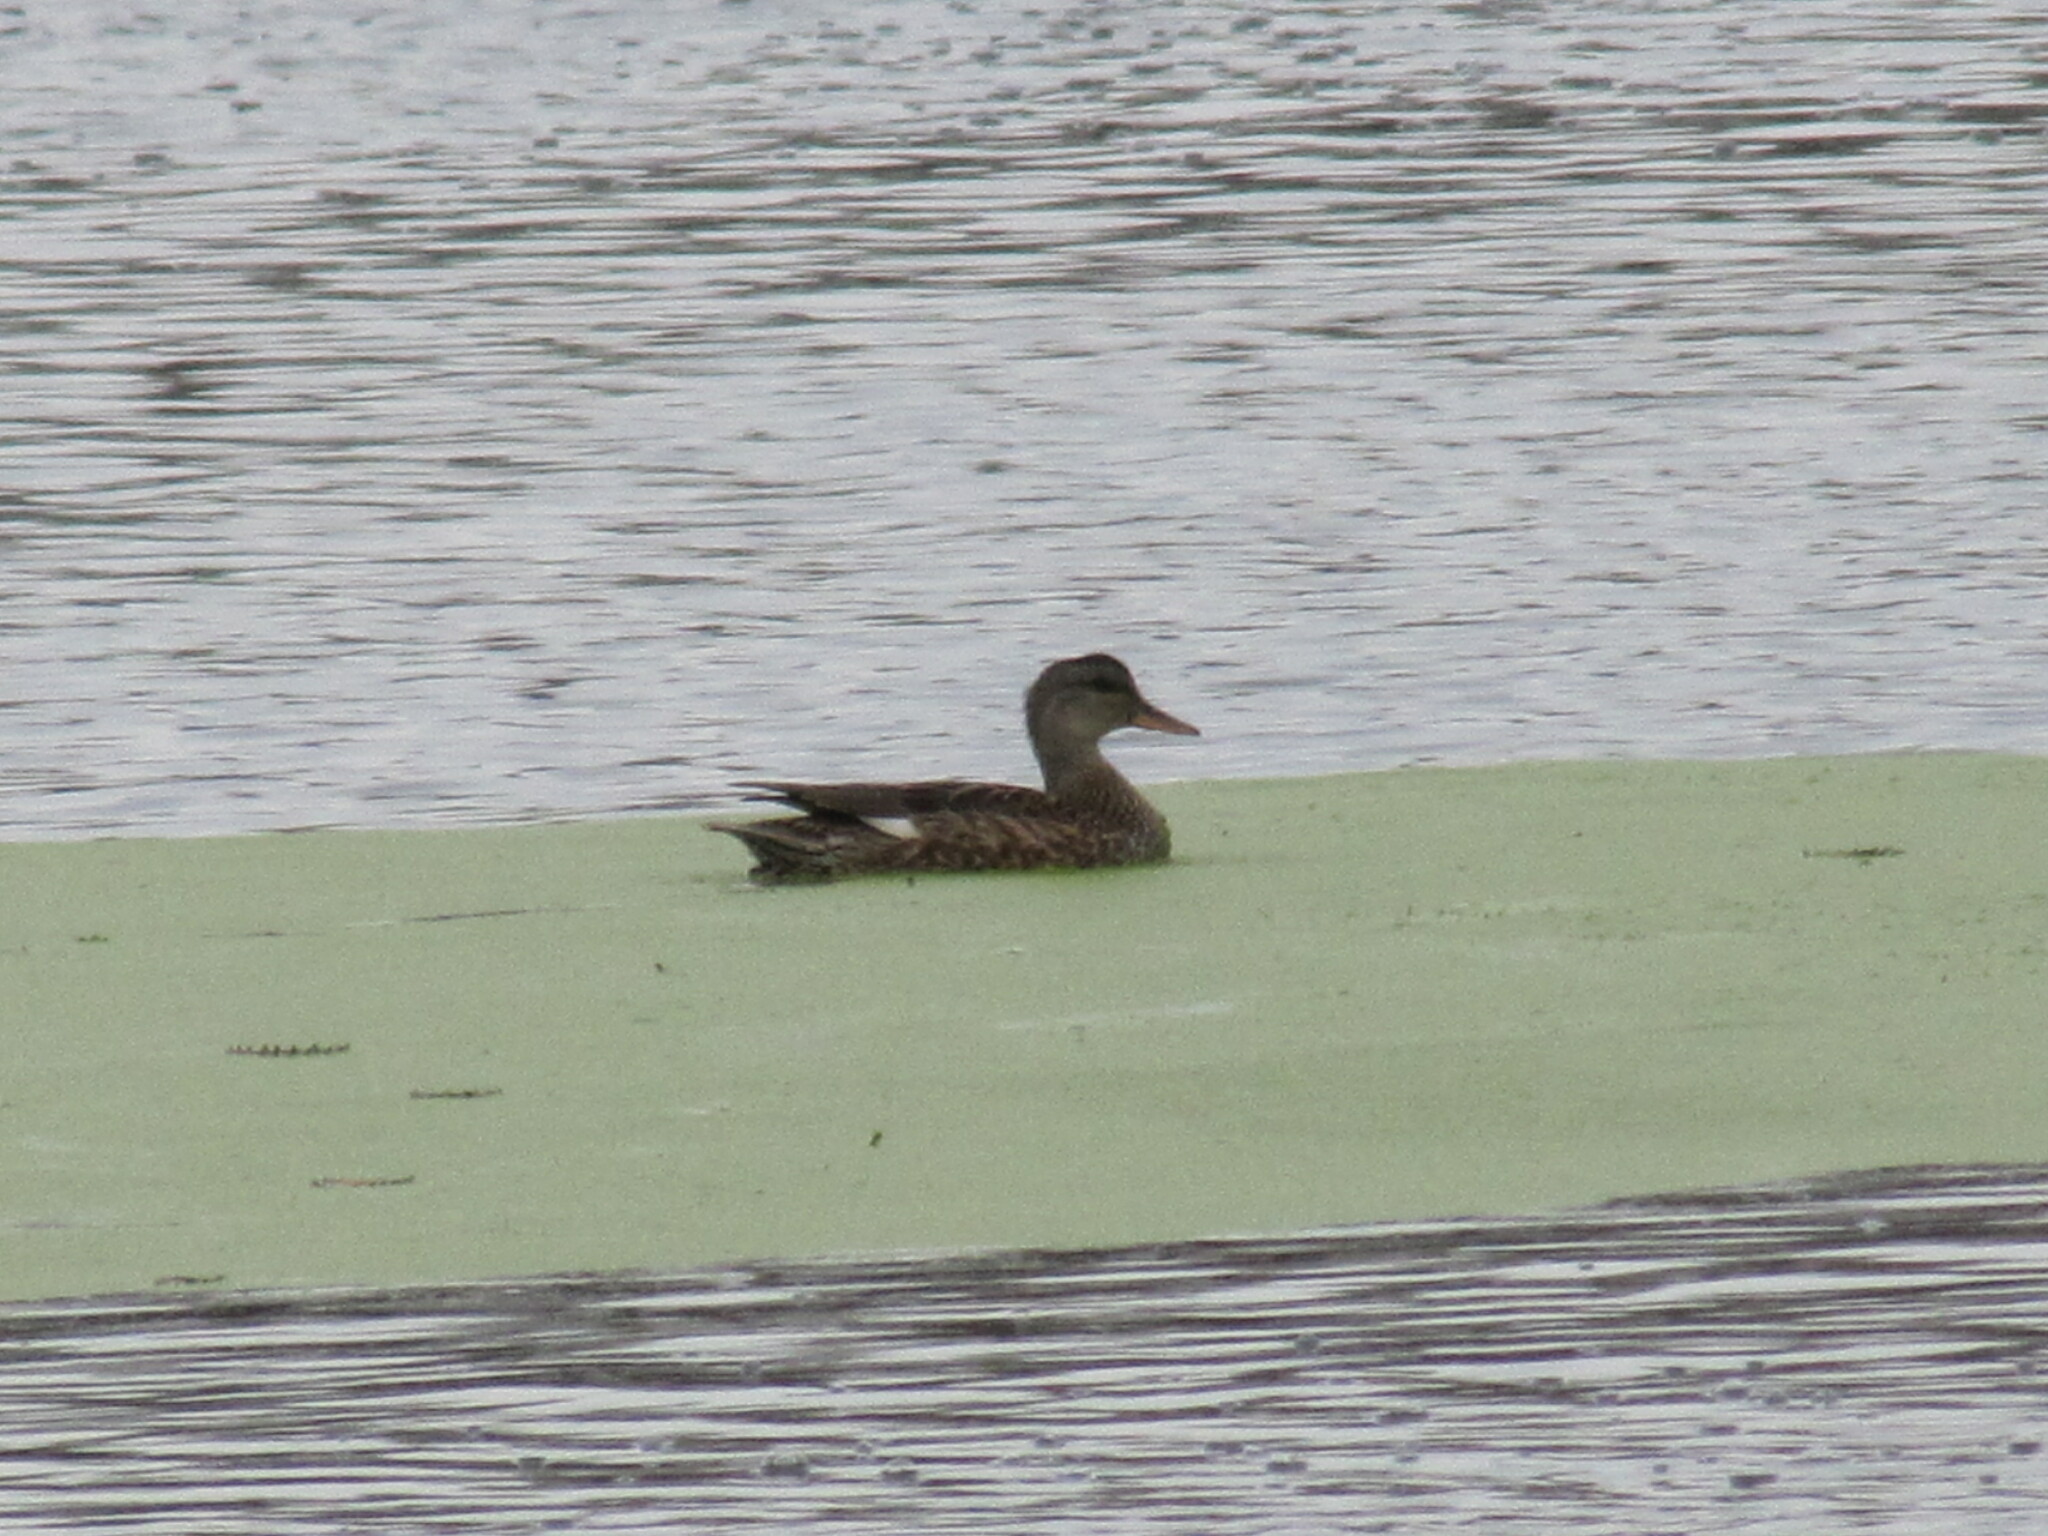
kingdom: Animalia
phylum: Chordata
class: Aves
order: Anseriformes
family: Anatidae
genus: Mareca
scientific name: Mareca strepera
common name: Gadwall
